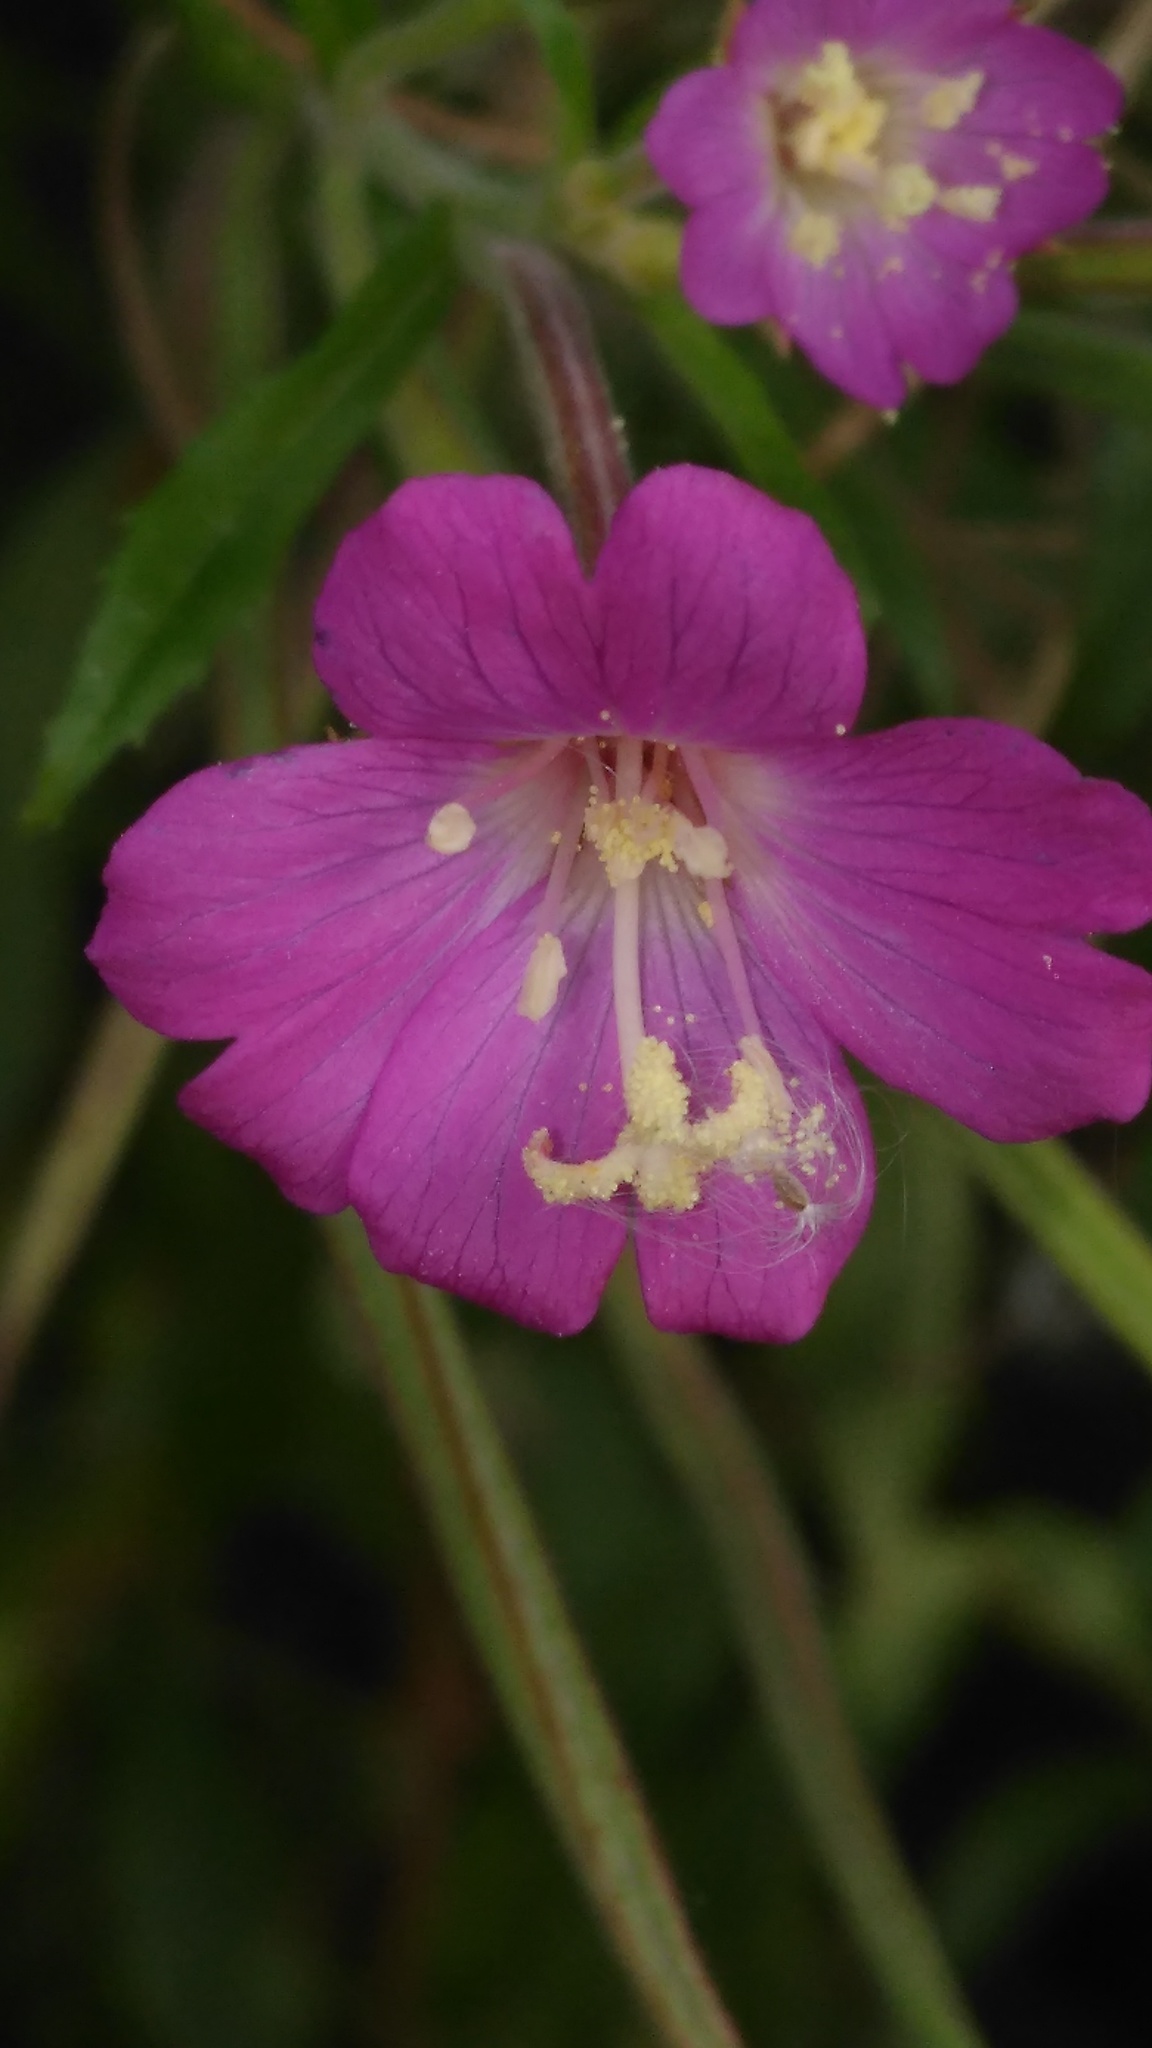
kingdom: Plantae
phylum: Tracheophyta
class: Magnoliopsida
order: Myrtales
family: Onagraceae
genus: Epilobium
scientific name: Epilobium hirsutum
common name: Great willowherb
